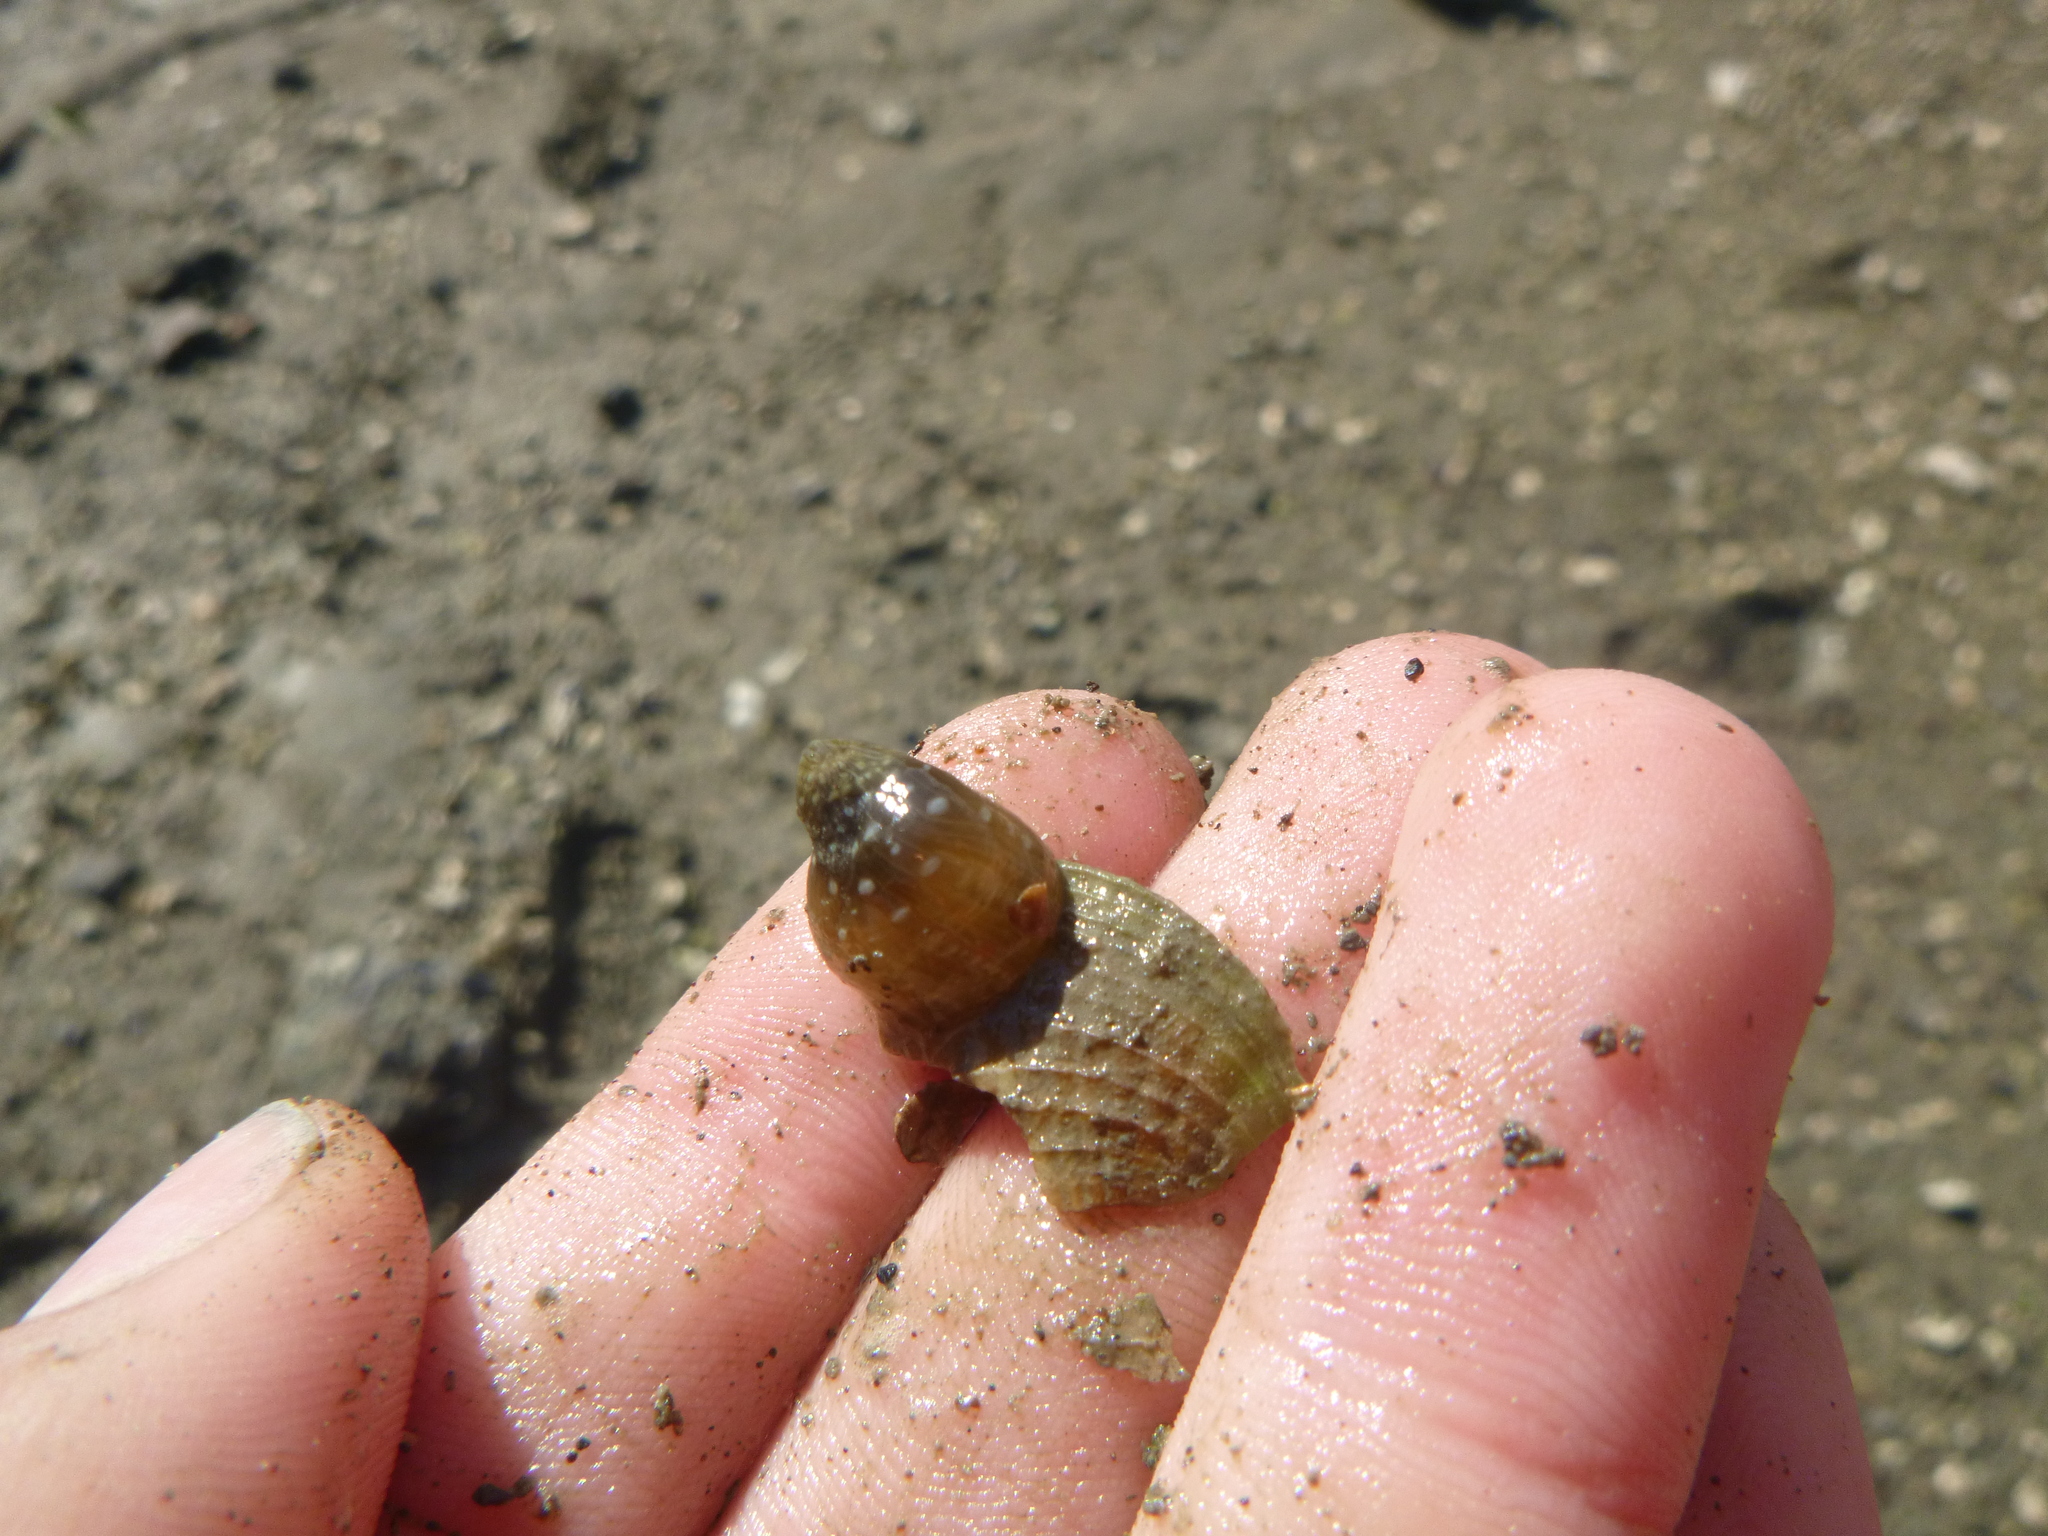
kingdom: Animalia
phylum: Cnidaria
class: Anthozoa
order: Actiniaria
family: Actiniidae
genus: Anthopleura
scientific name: Anthopleura hermaphroditica
